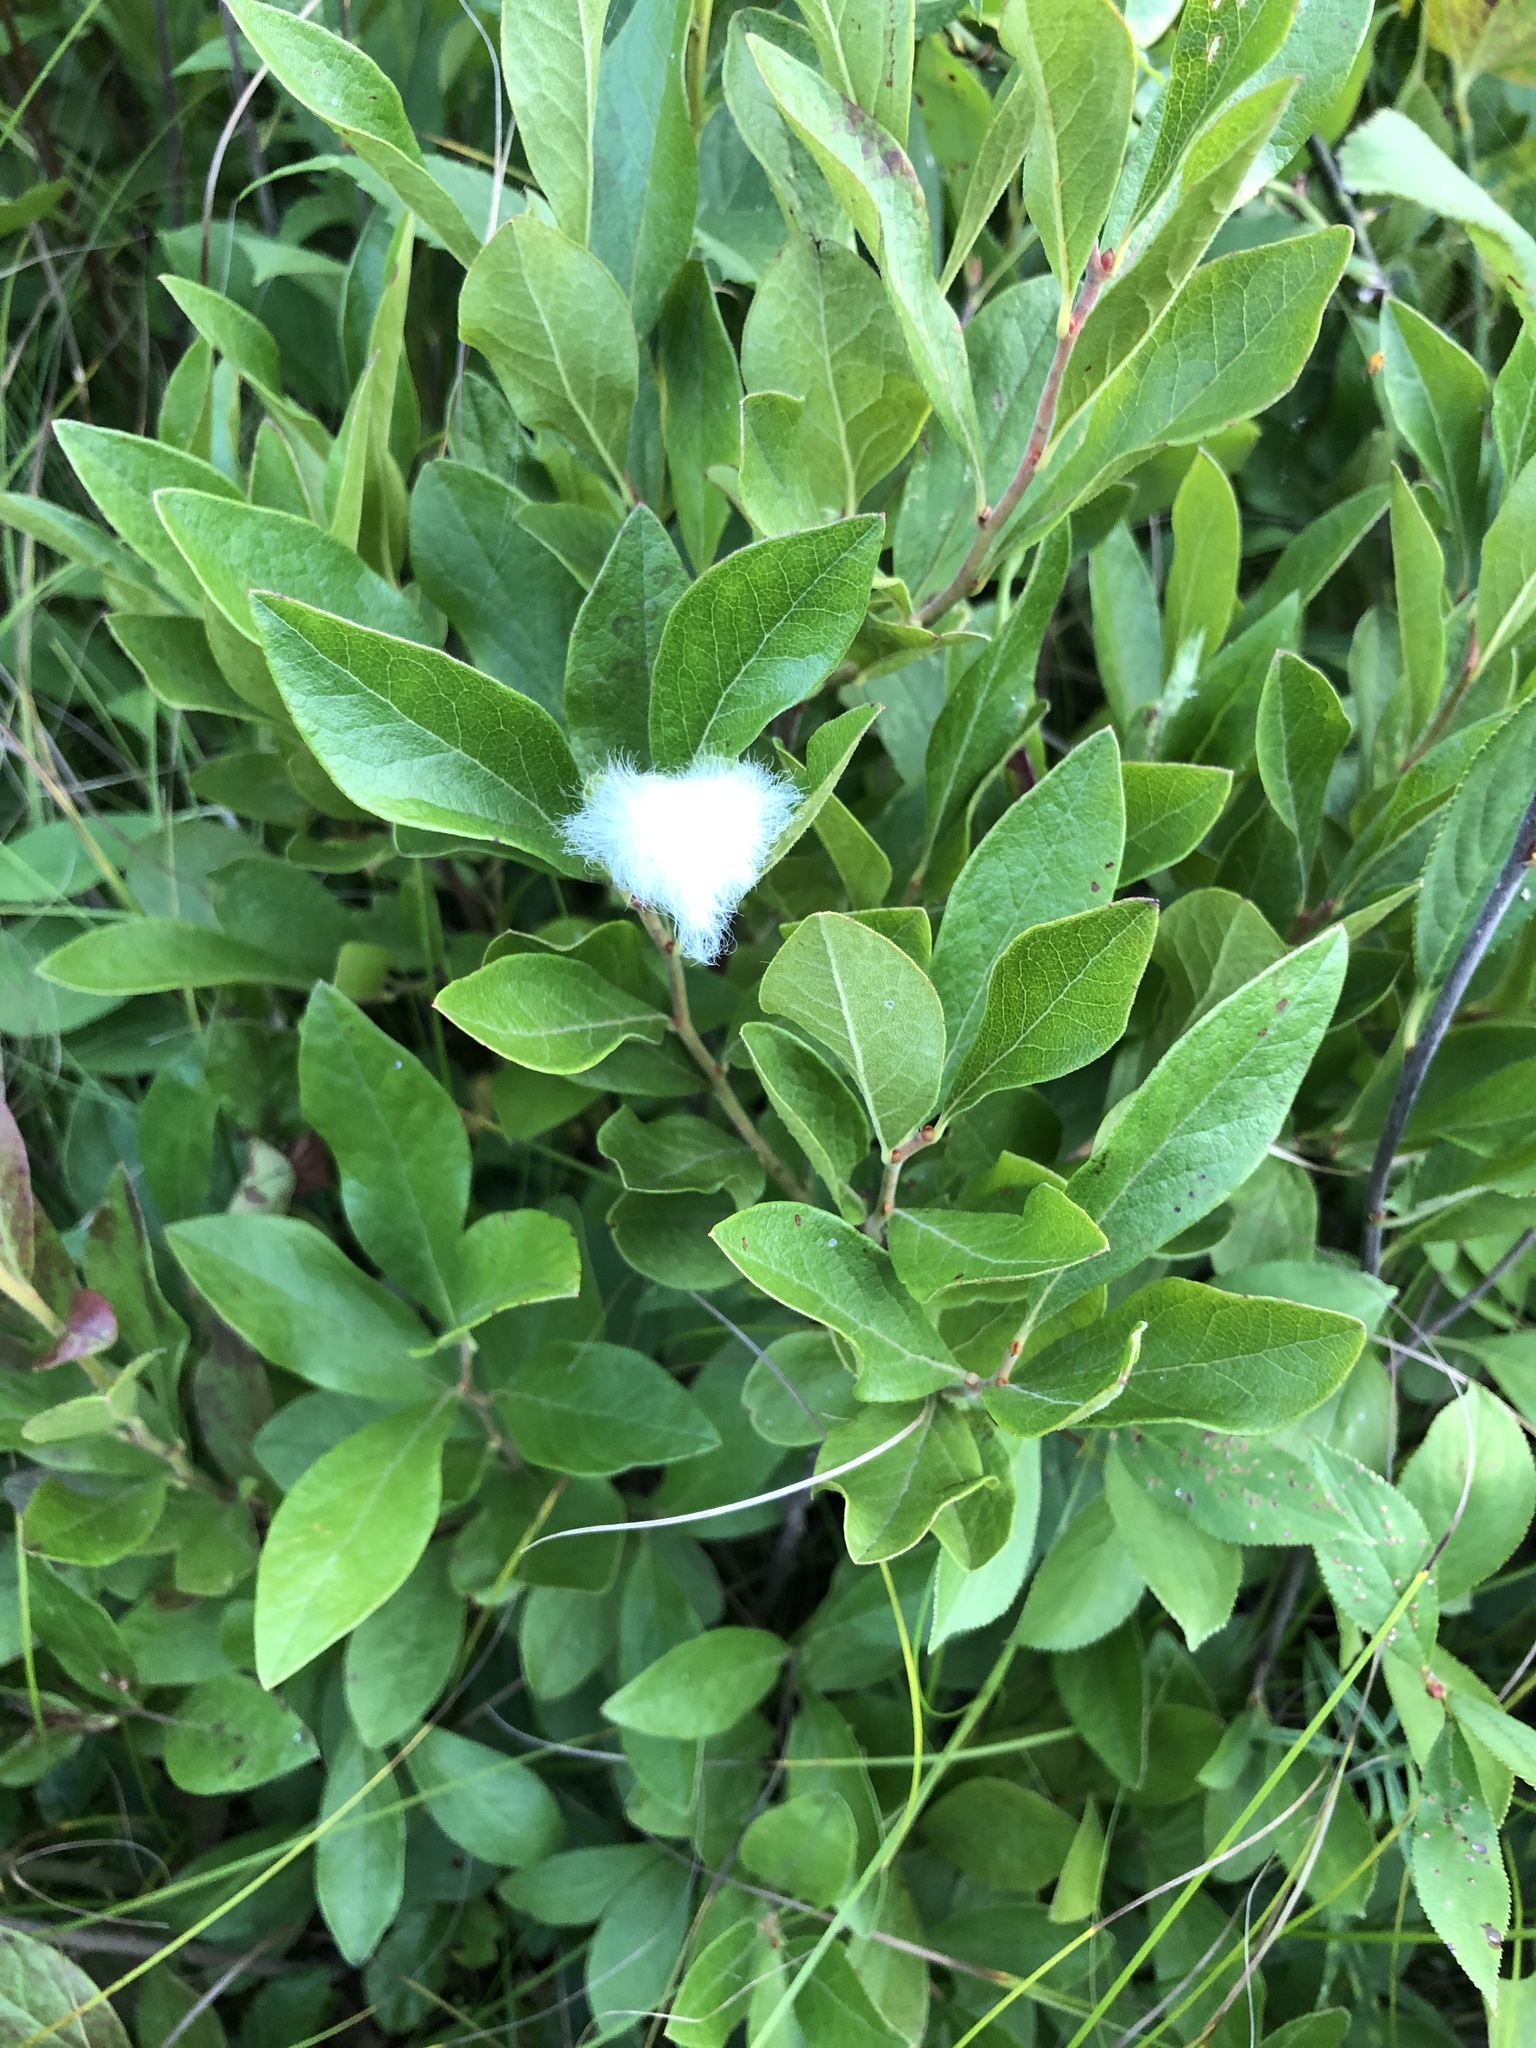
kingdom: Animalia
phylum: Arthropoda
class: Insecta
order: Lepidoptera
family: Megalopygidae
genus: Megalopyge
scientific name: Megalopyge crispata
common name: Black-waved flannel moth
